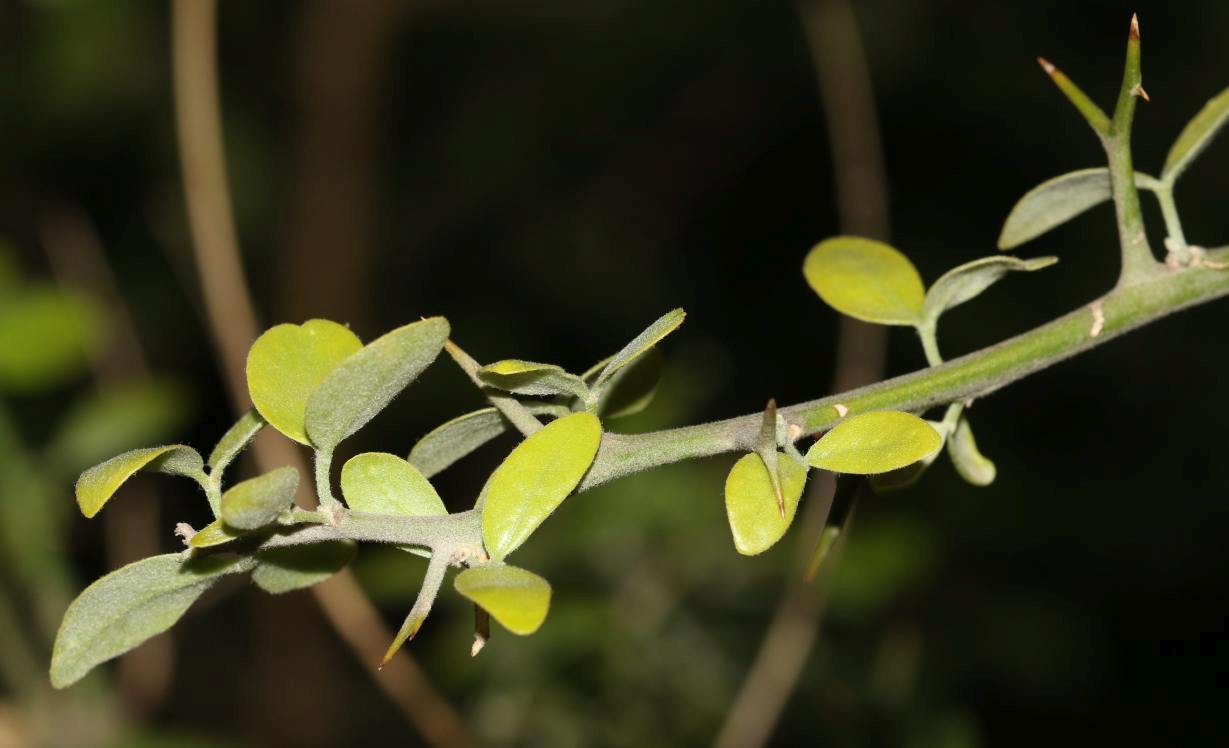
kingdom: Plantae
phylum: Tracheophyta
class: Magnoliopsida
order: Zygophyllales
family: Zygophyllaceae
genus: Balanites
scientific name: Balanites maughamii
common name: Torchwood
